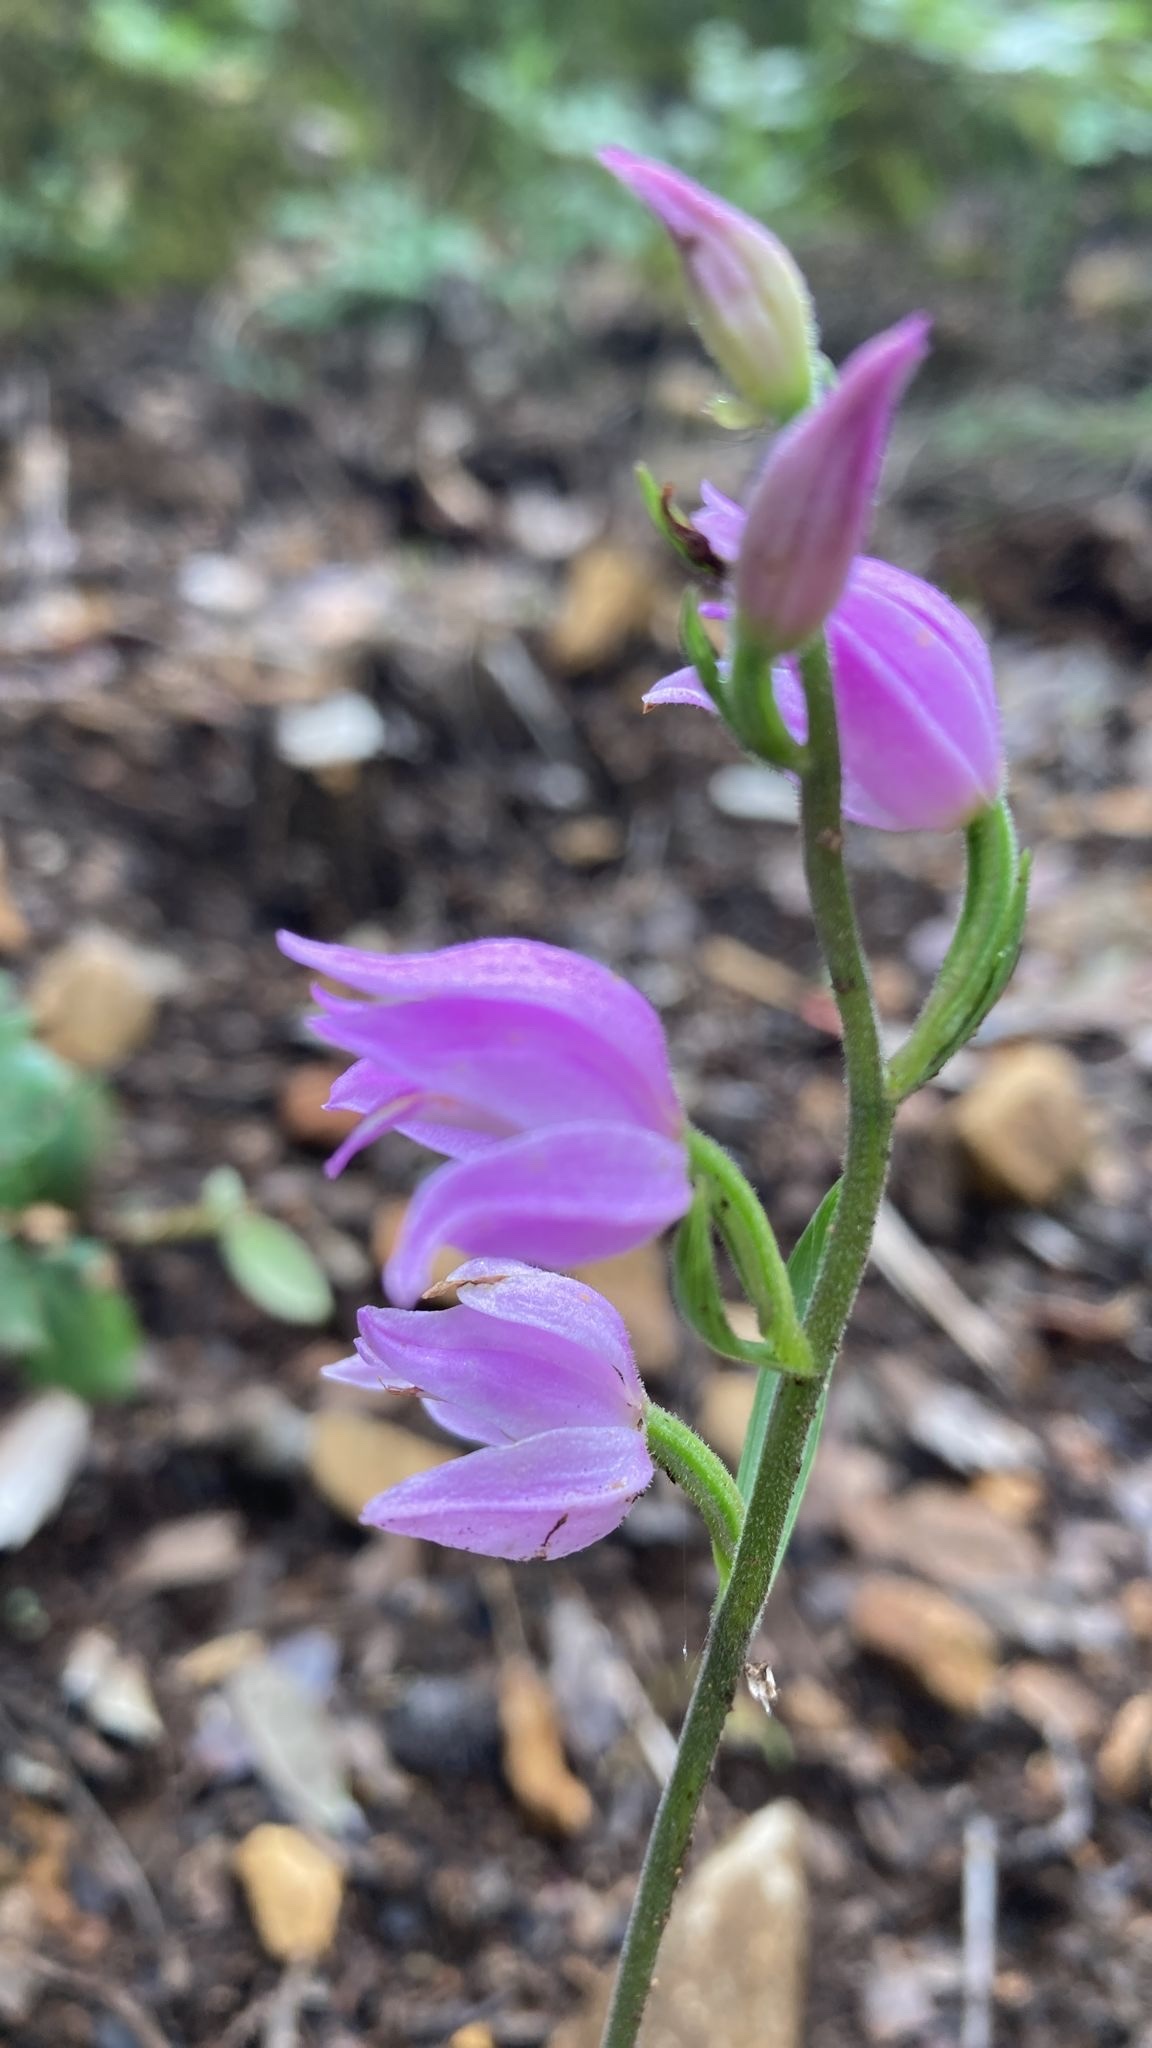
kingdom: Plantae
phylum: Tracheophyta
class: Liliopsida
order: Asparagales
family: Orchidaceae
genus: Cephalanthera
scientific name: Cephalanthera rubra
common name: Red helleborine
